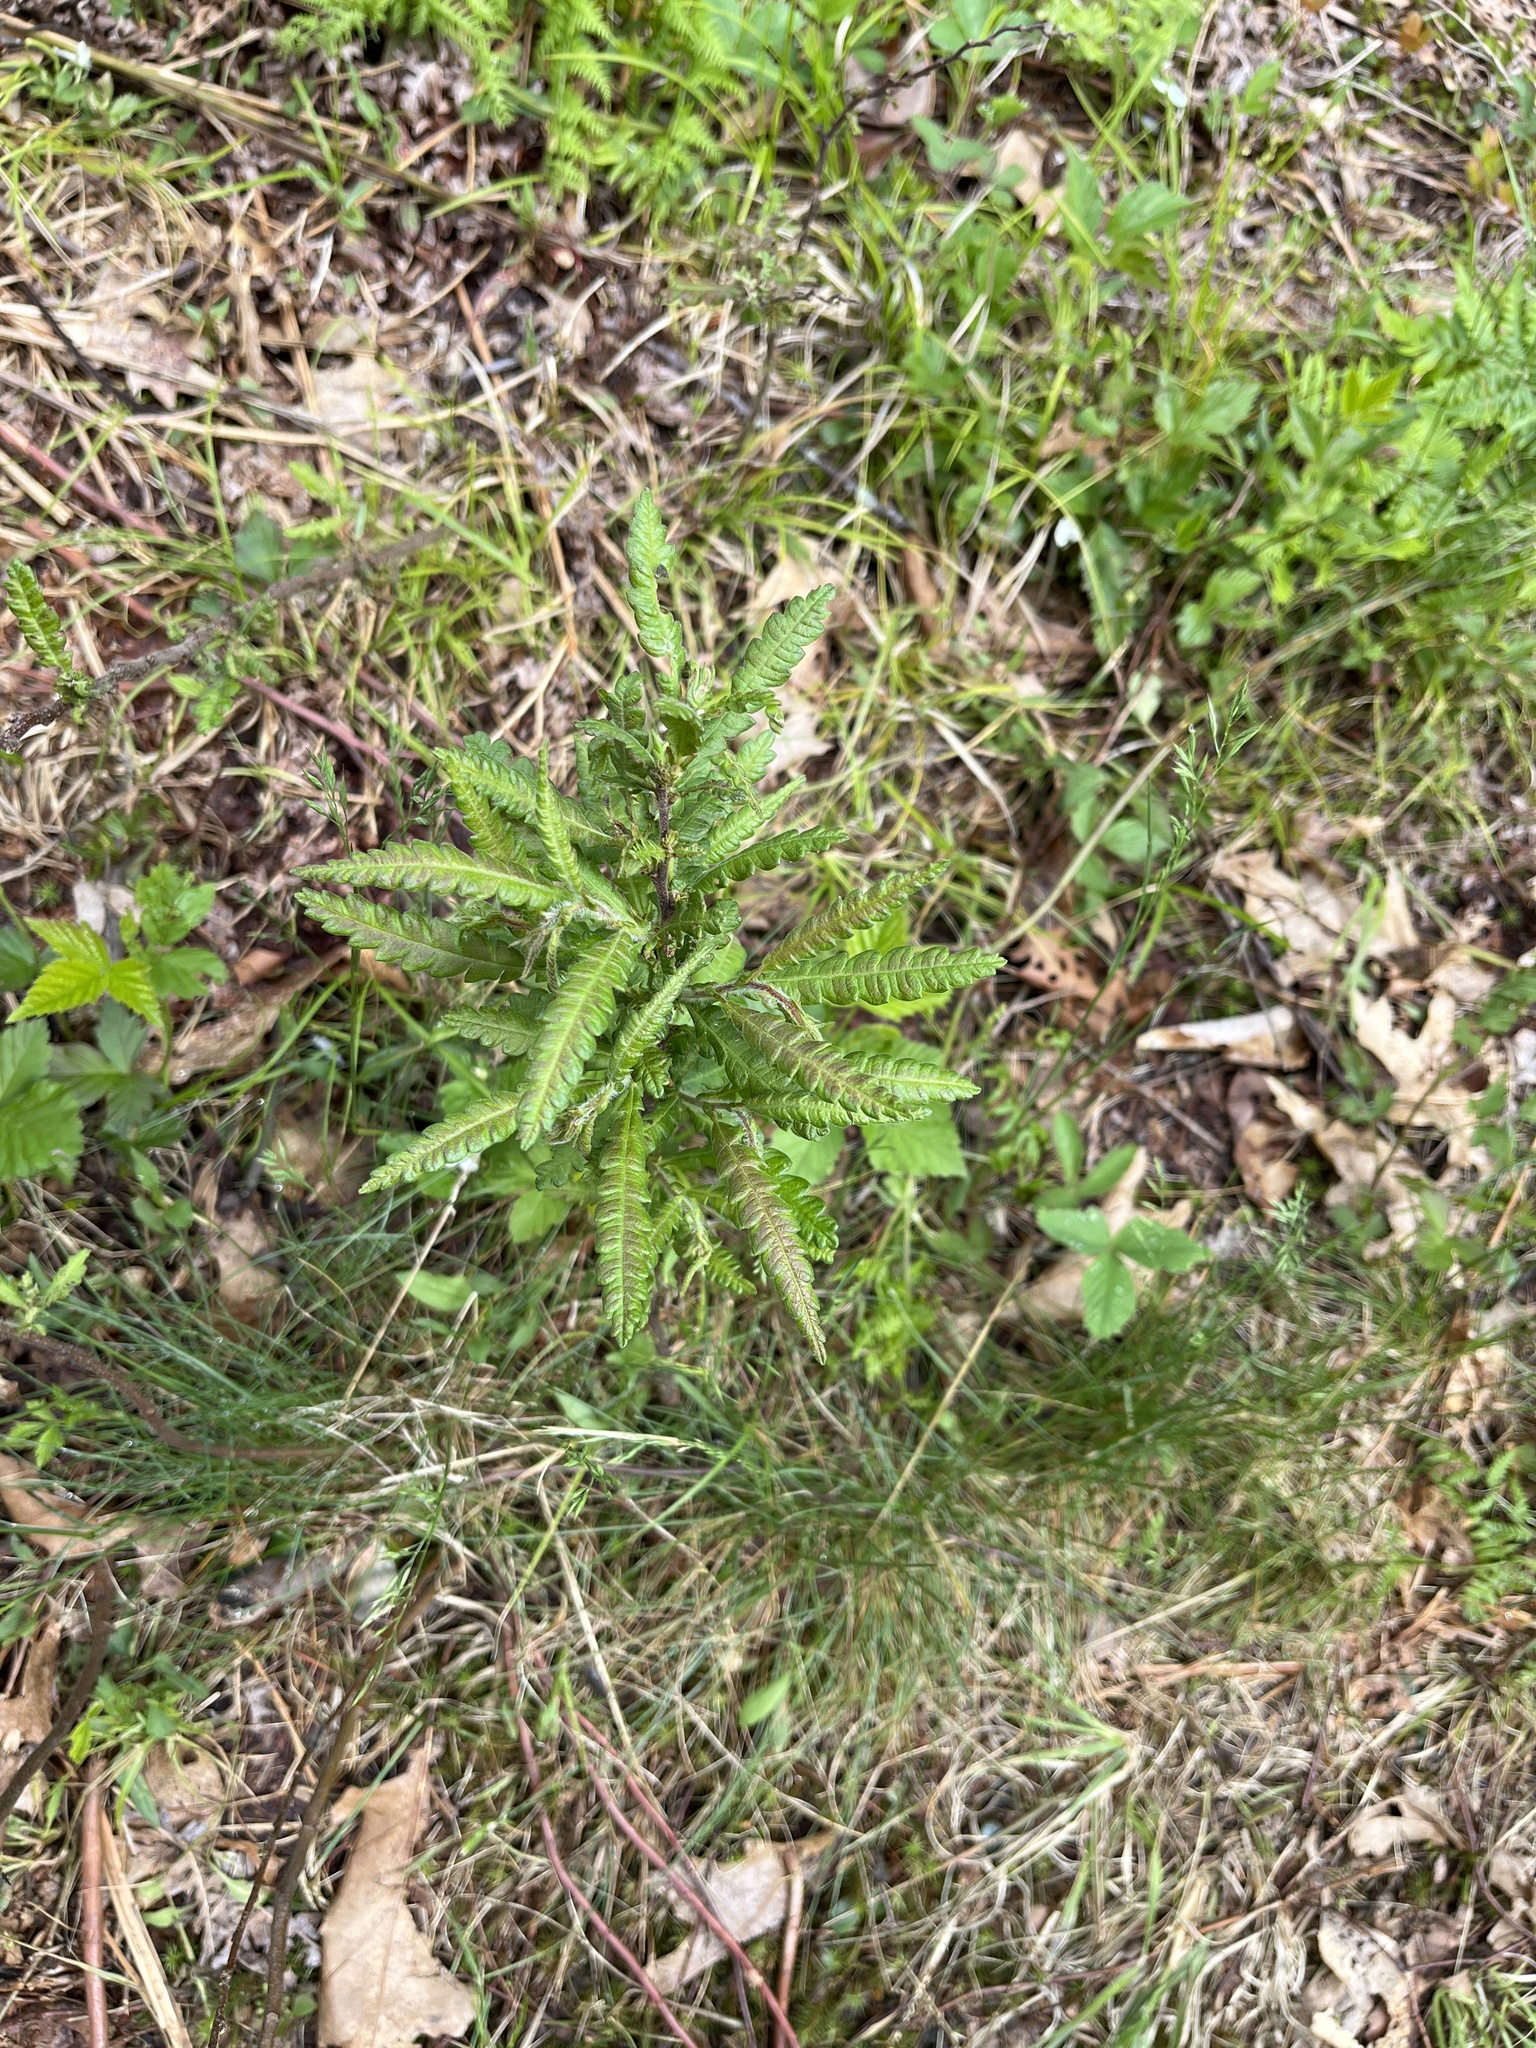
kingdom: Plantae
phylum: Tracheophyta
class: Magnoliopsida
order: Fagales
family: Myricaceae
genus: Comptonia
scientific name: Comptonia peregrina
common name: Sweet-fern
